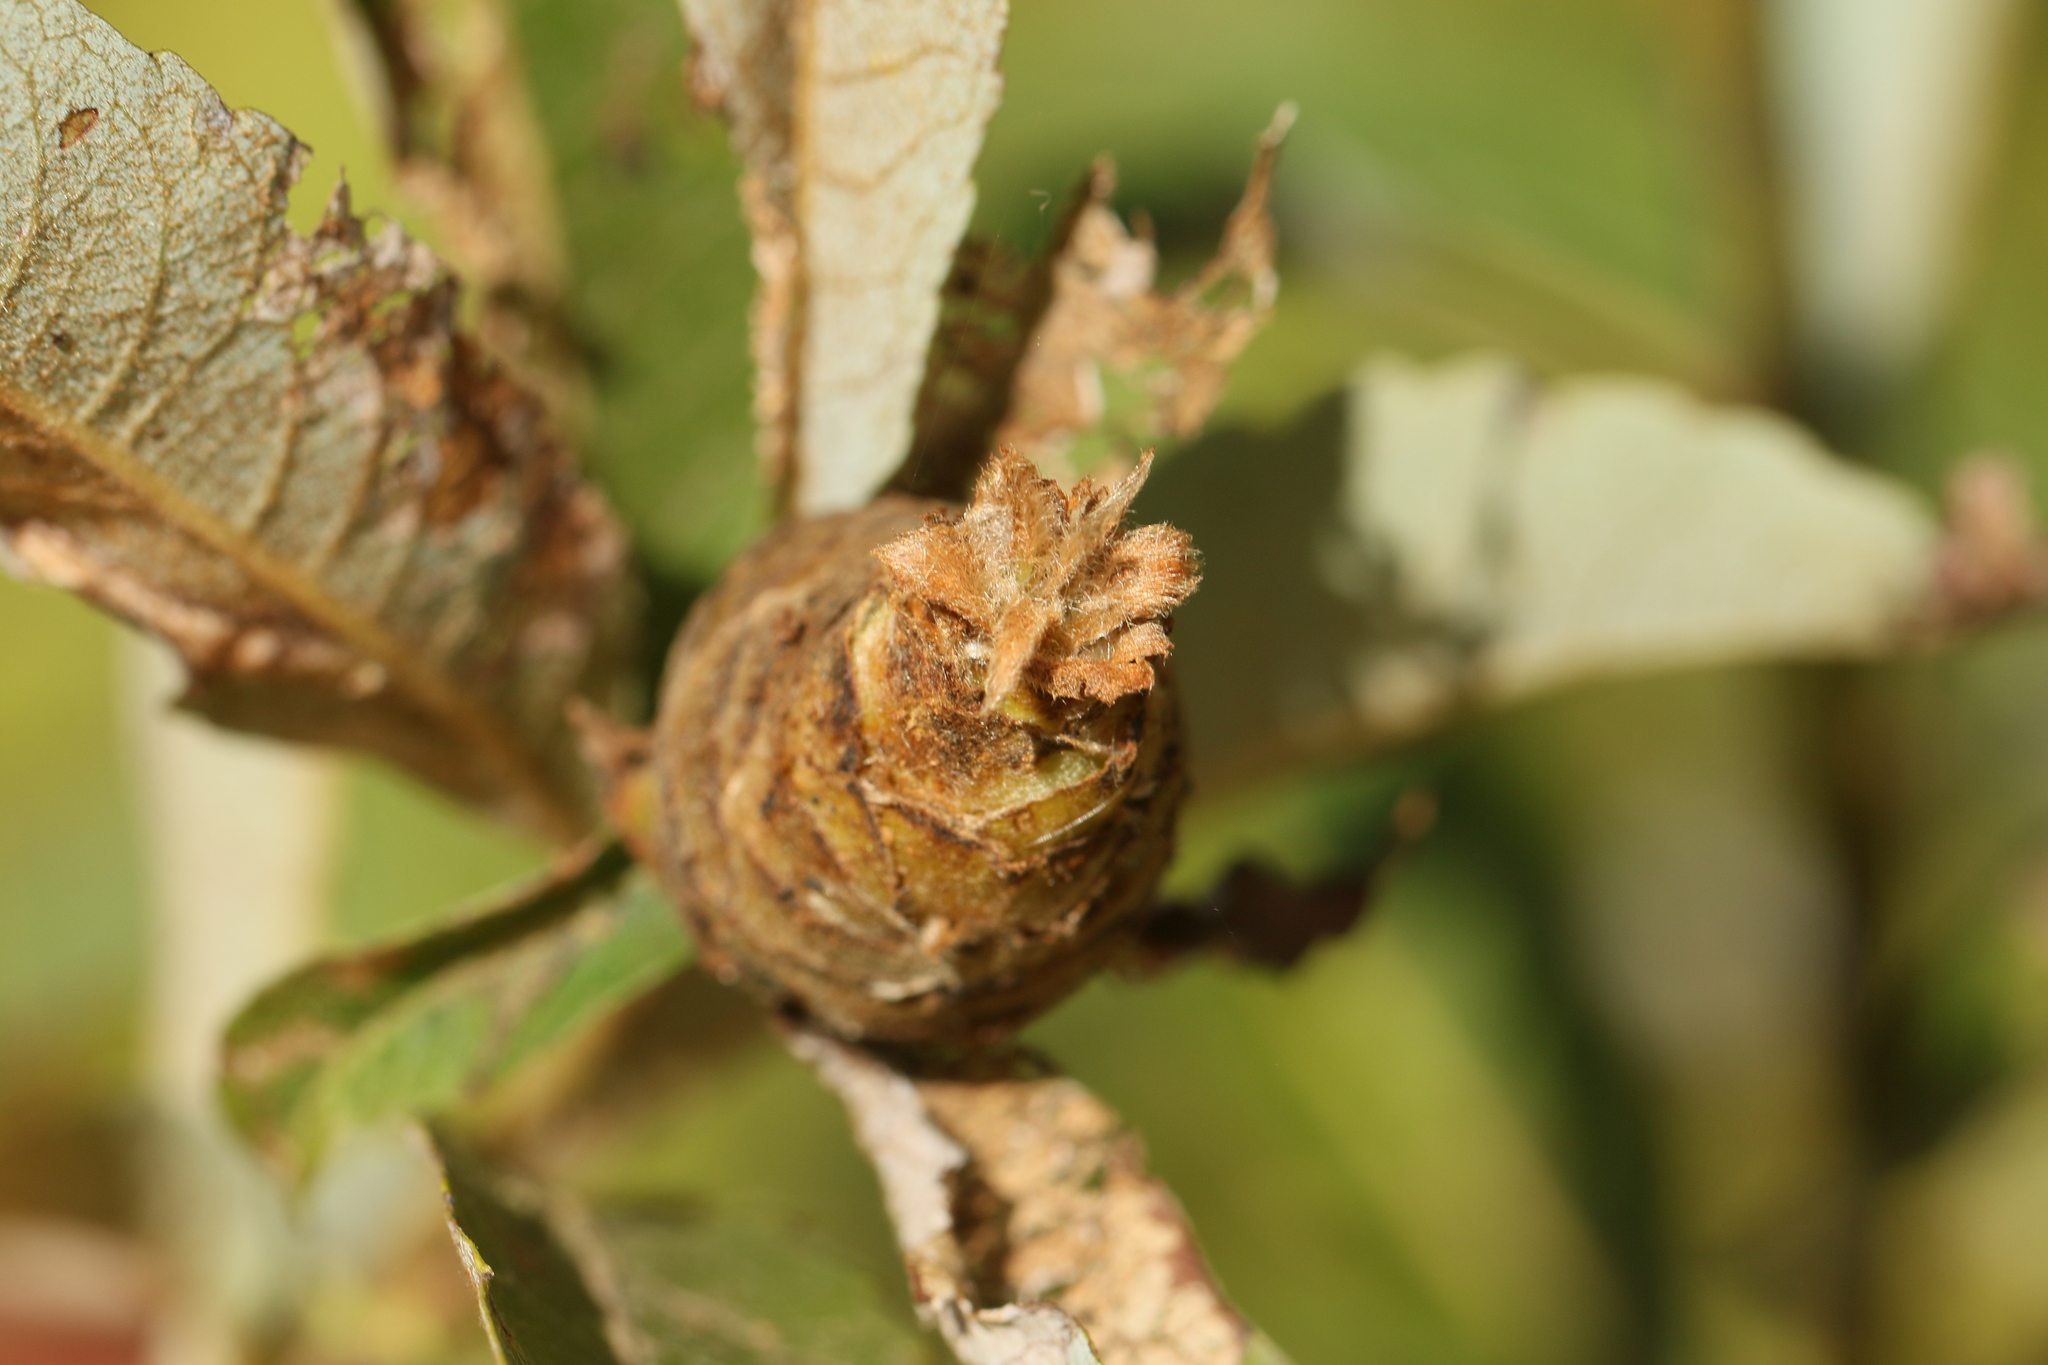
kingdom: Animalia
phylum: Arthropoda
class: Insecta
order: Diptera
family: Cecidomyiidae
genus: Rabdophaga
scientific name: Rabdophaga strobiloides
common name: Willow pinecone gall midge
